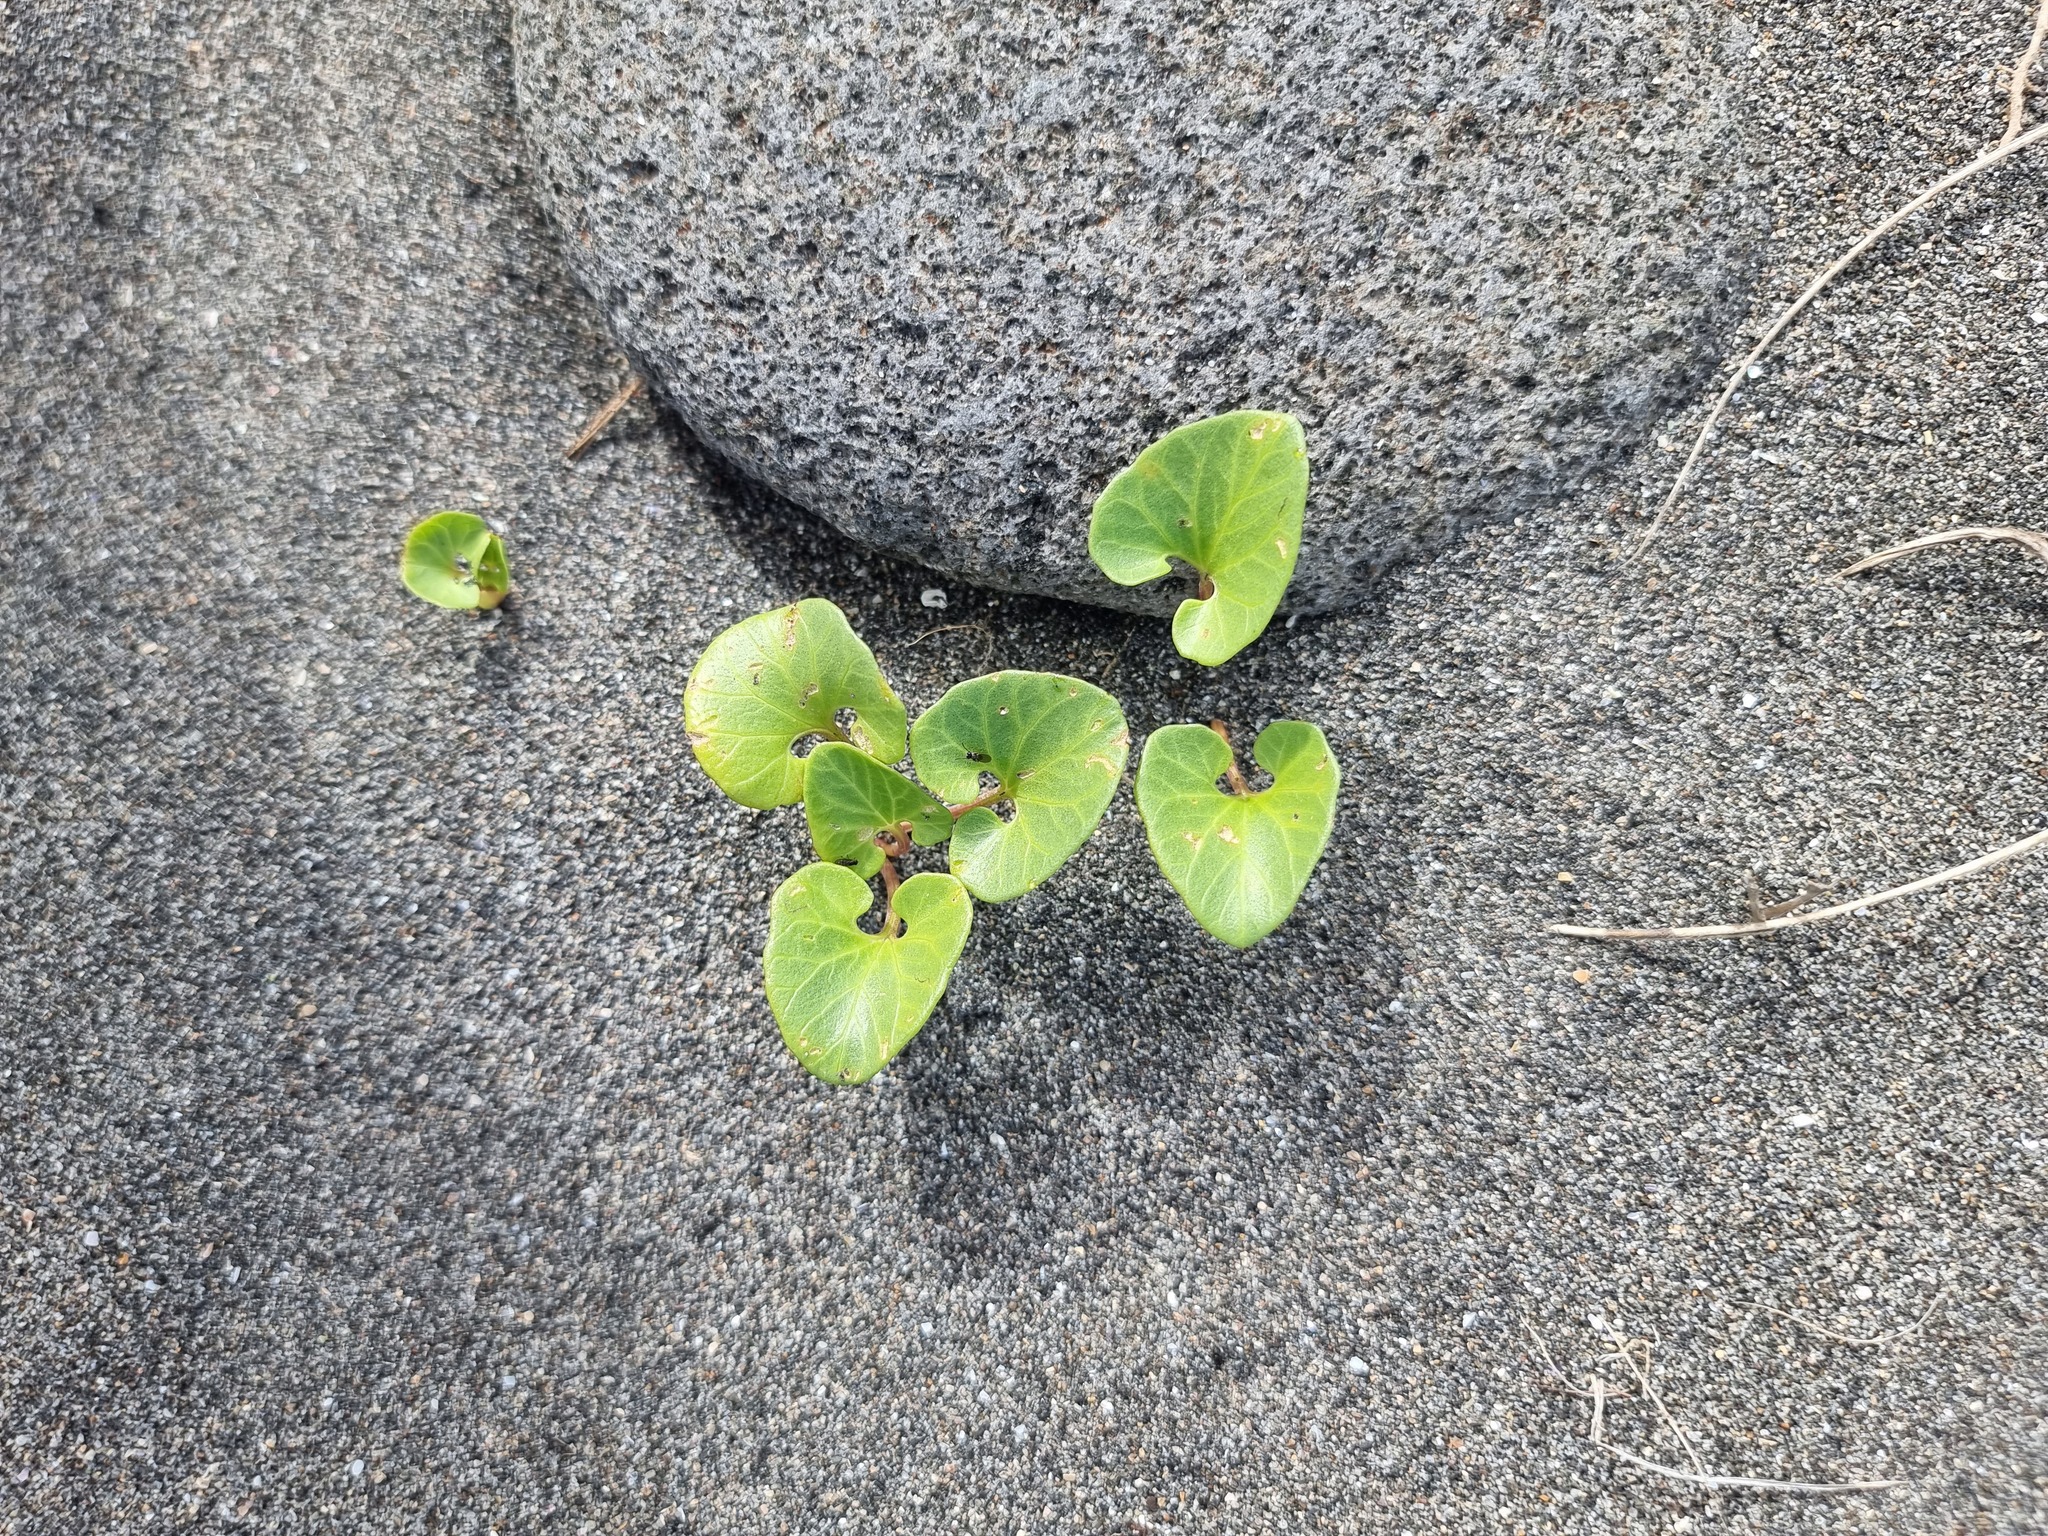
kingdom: Plantae
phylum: Tracheophyta
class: Magnoliopsida
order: Solanales
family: Convolvulaceae
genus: Calystegia
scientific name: Calystegia soldanella
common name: Sea bindweed
